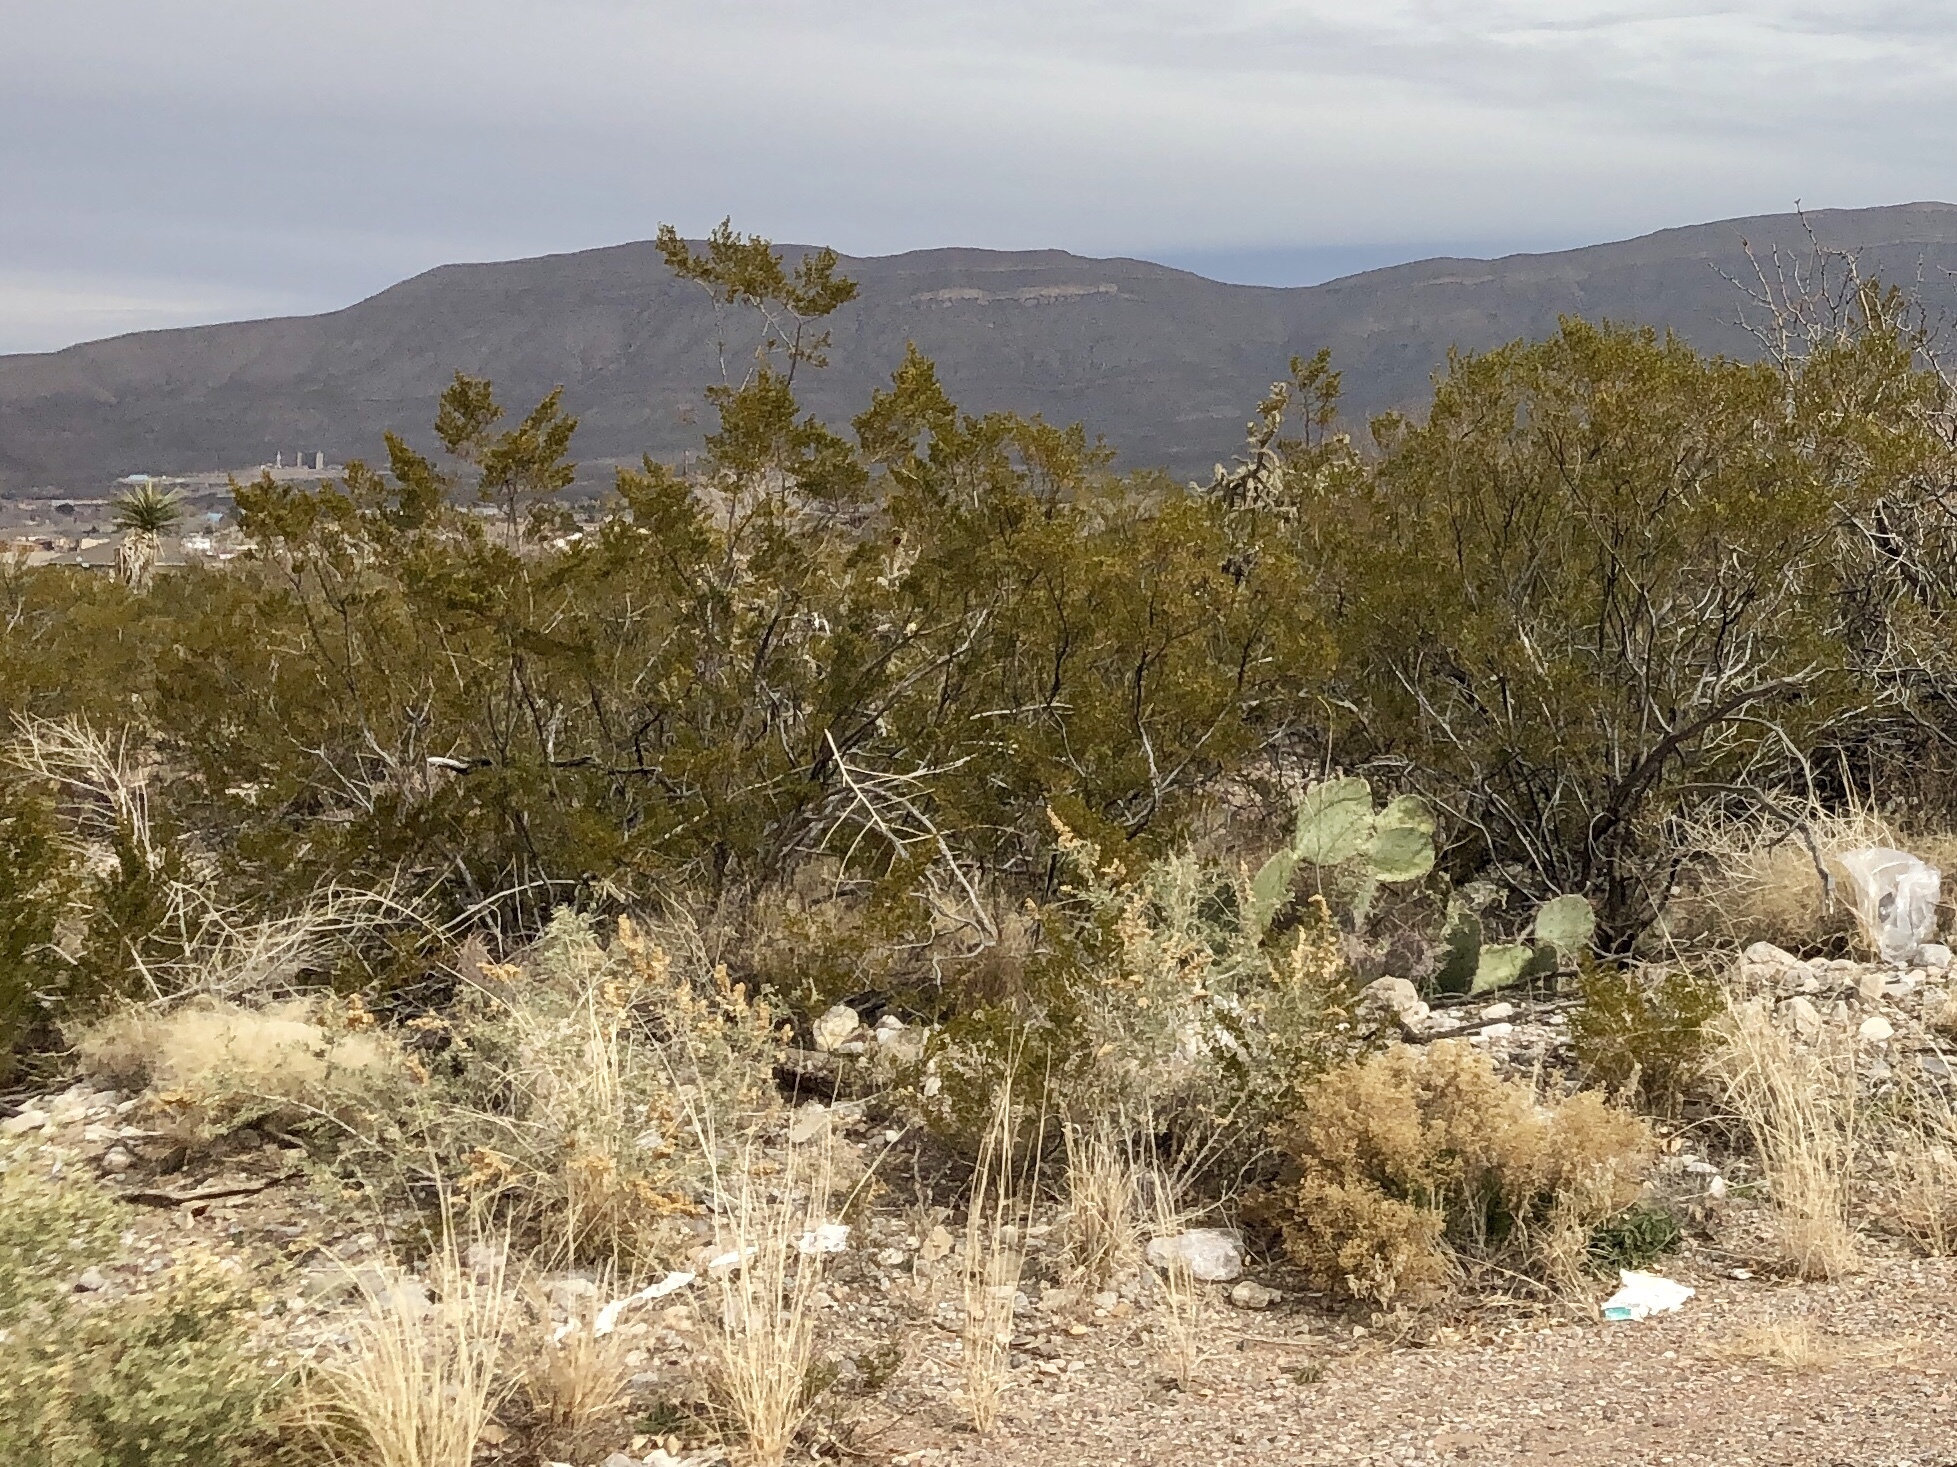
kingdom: Plantae
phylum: Tracheophyta
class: Magnoliopsida
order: Zygophyllales
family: Zygophyllaceae
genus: Larrea
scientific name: Larrea tridentata
